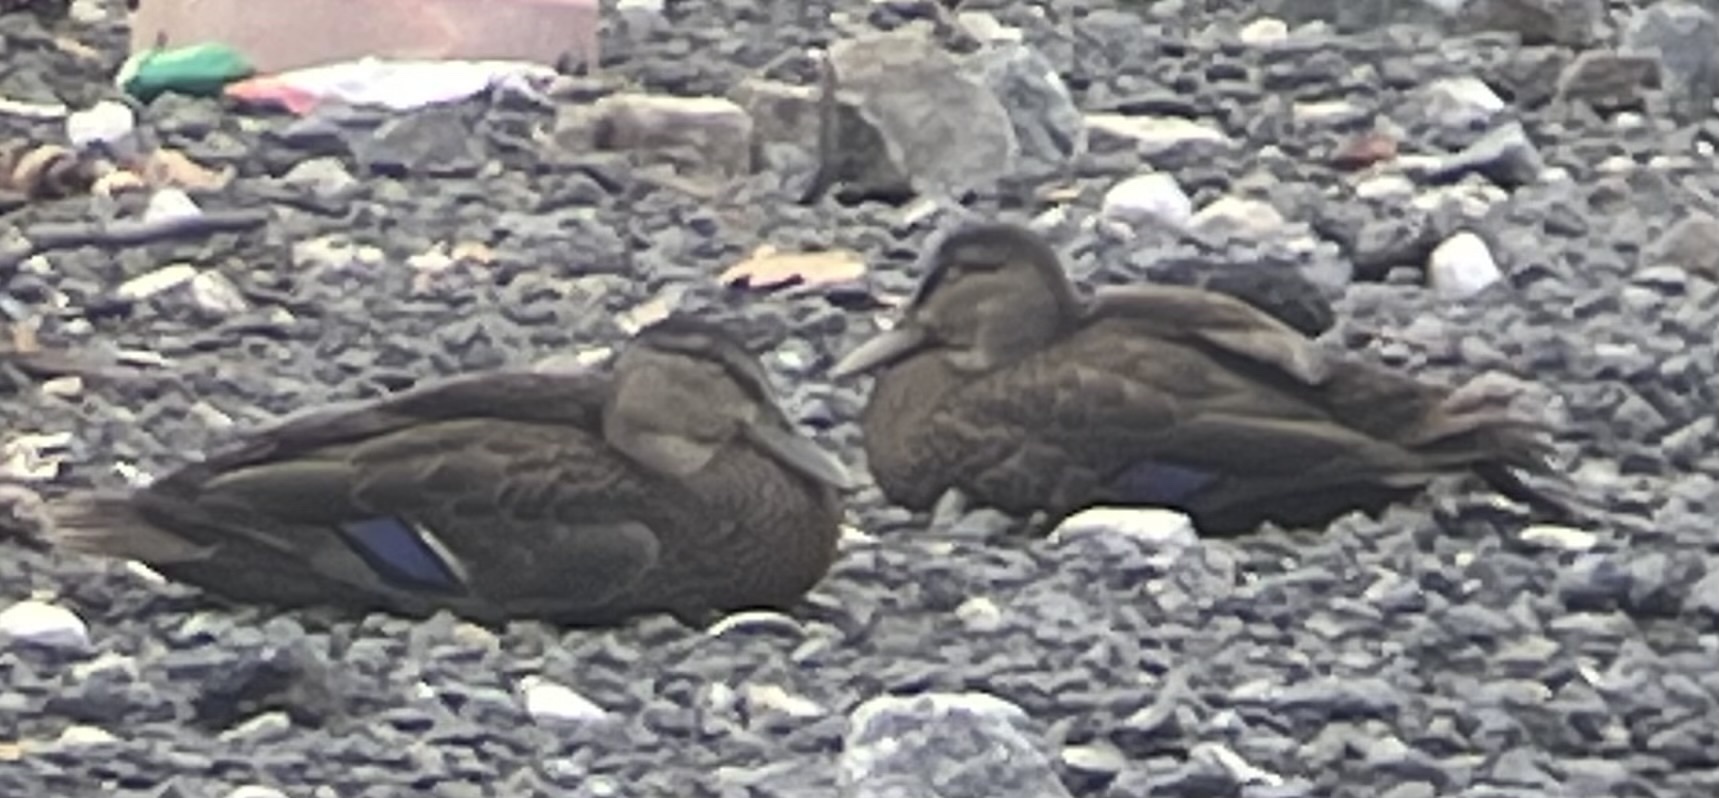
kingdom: Animalia
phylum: Chordata
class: Aves
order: Anseriformes
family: Anatidae
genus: Anas
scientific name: Anas rubripes
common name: American black duck
